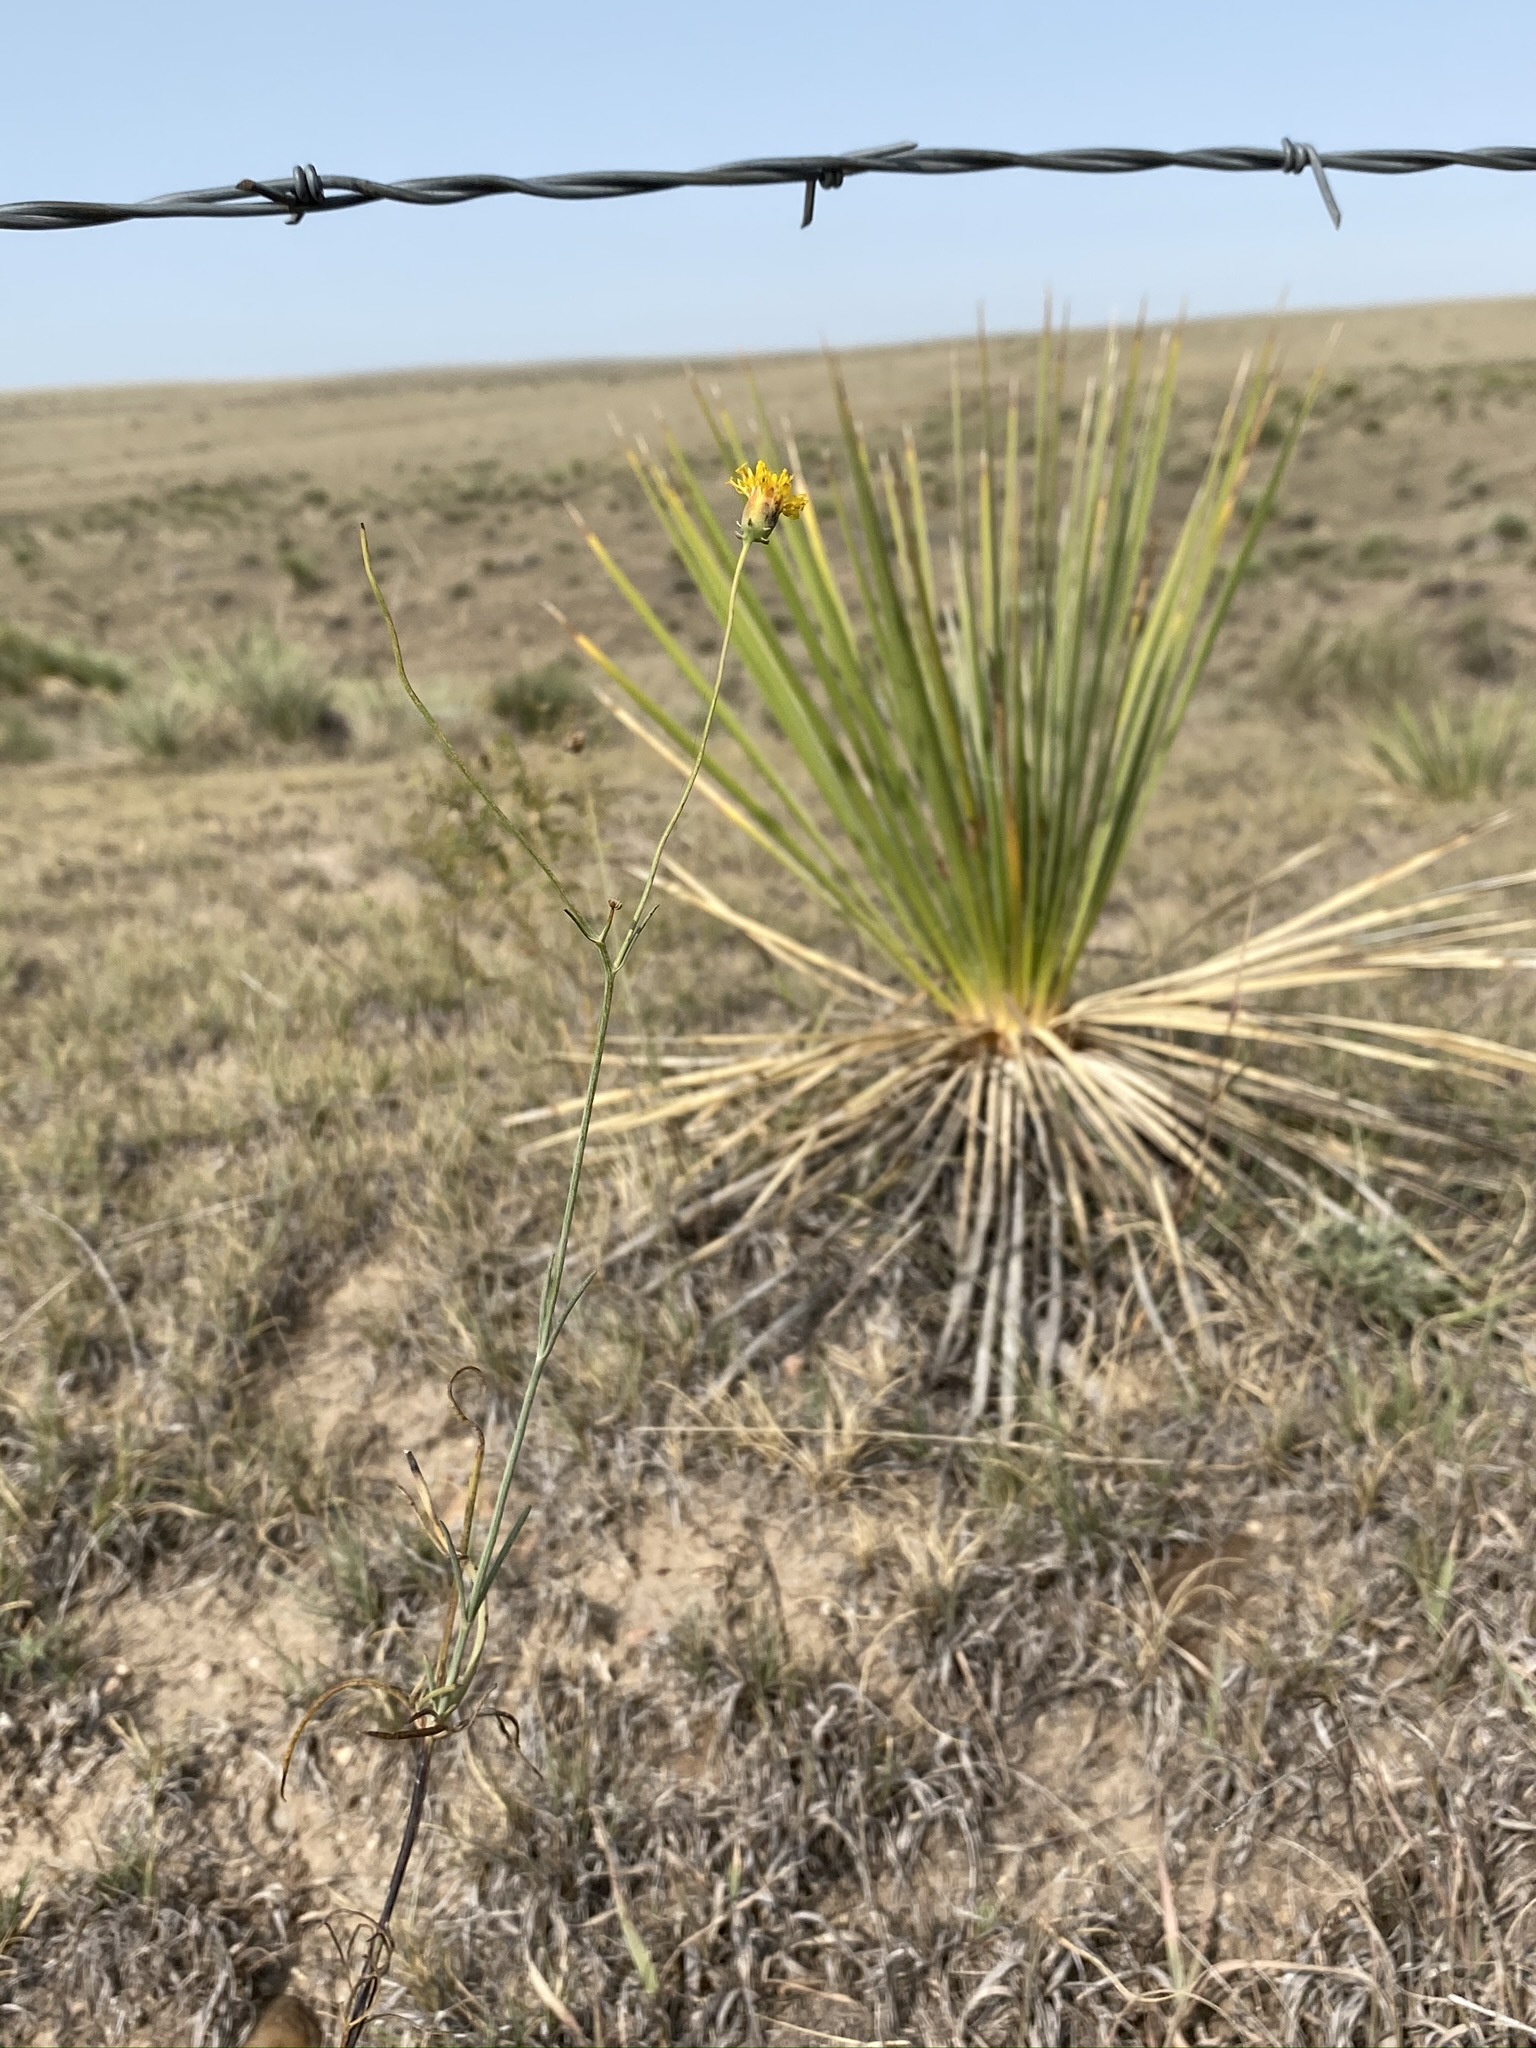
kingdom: Plantae
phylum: Tracheophyta
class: Magnoliopsida
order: Asterales
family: Asteraceae
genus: Thelesperma
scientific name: Thelesperma megapotamicum
